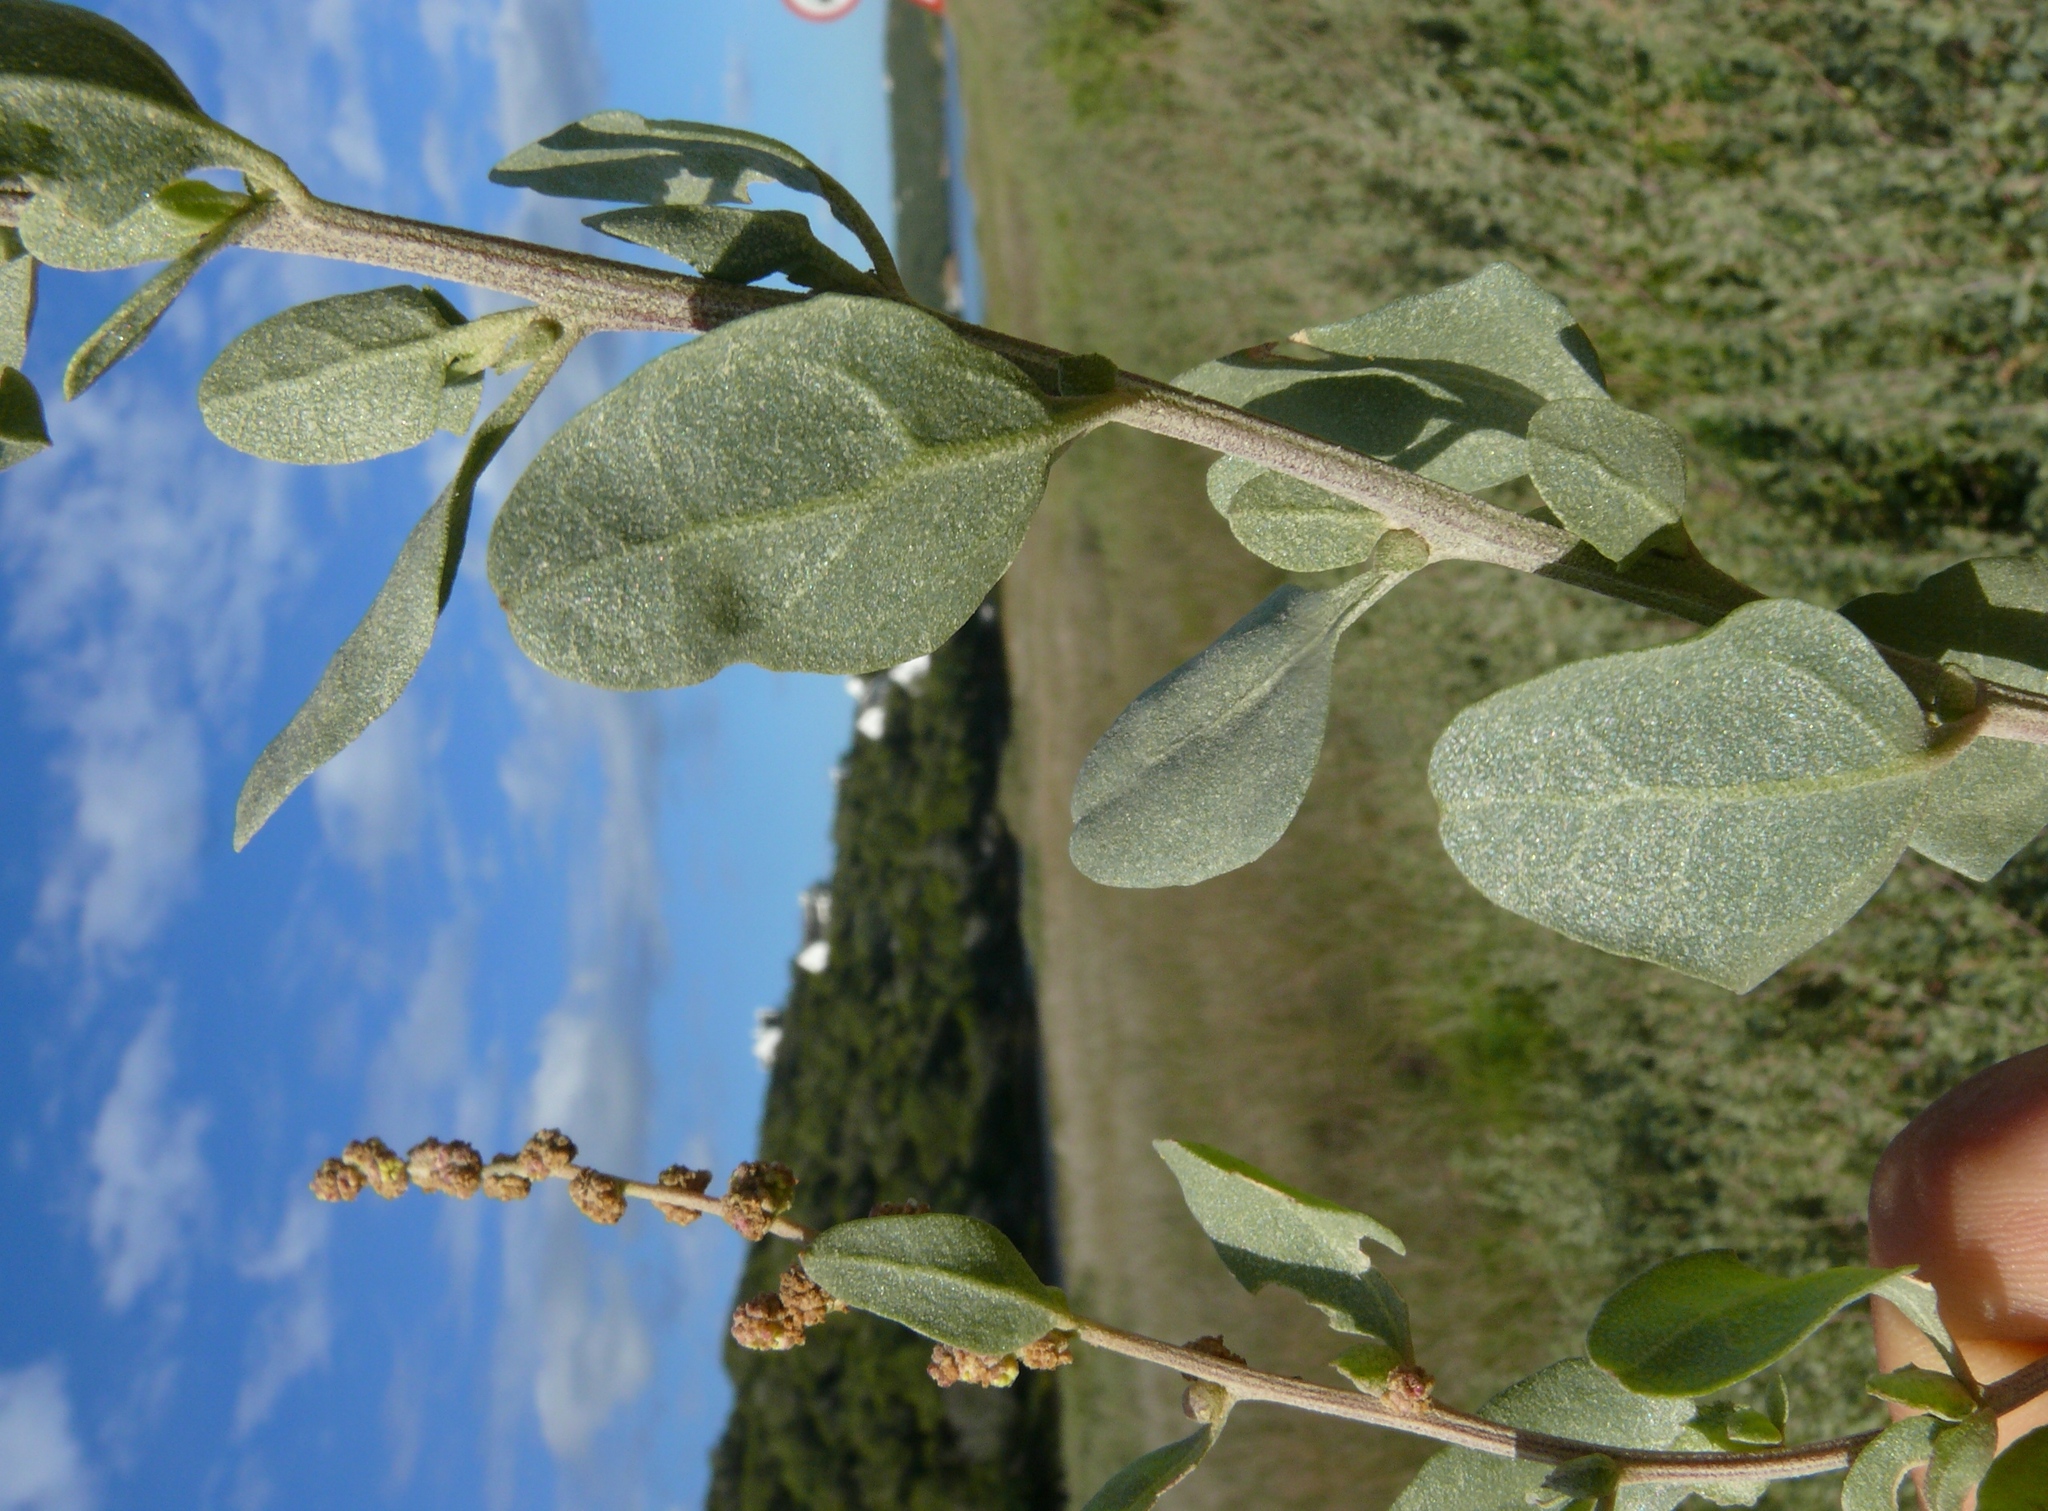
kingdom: Plantae
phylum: Tracheophyta
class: Magnoliopsida
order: Caryophyllales
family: Amaranthaceae
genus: Atriplex
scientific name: Atriplex vestita
